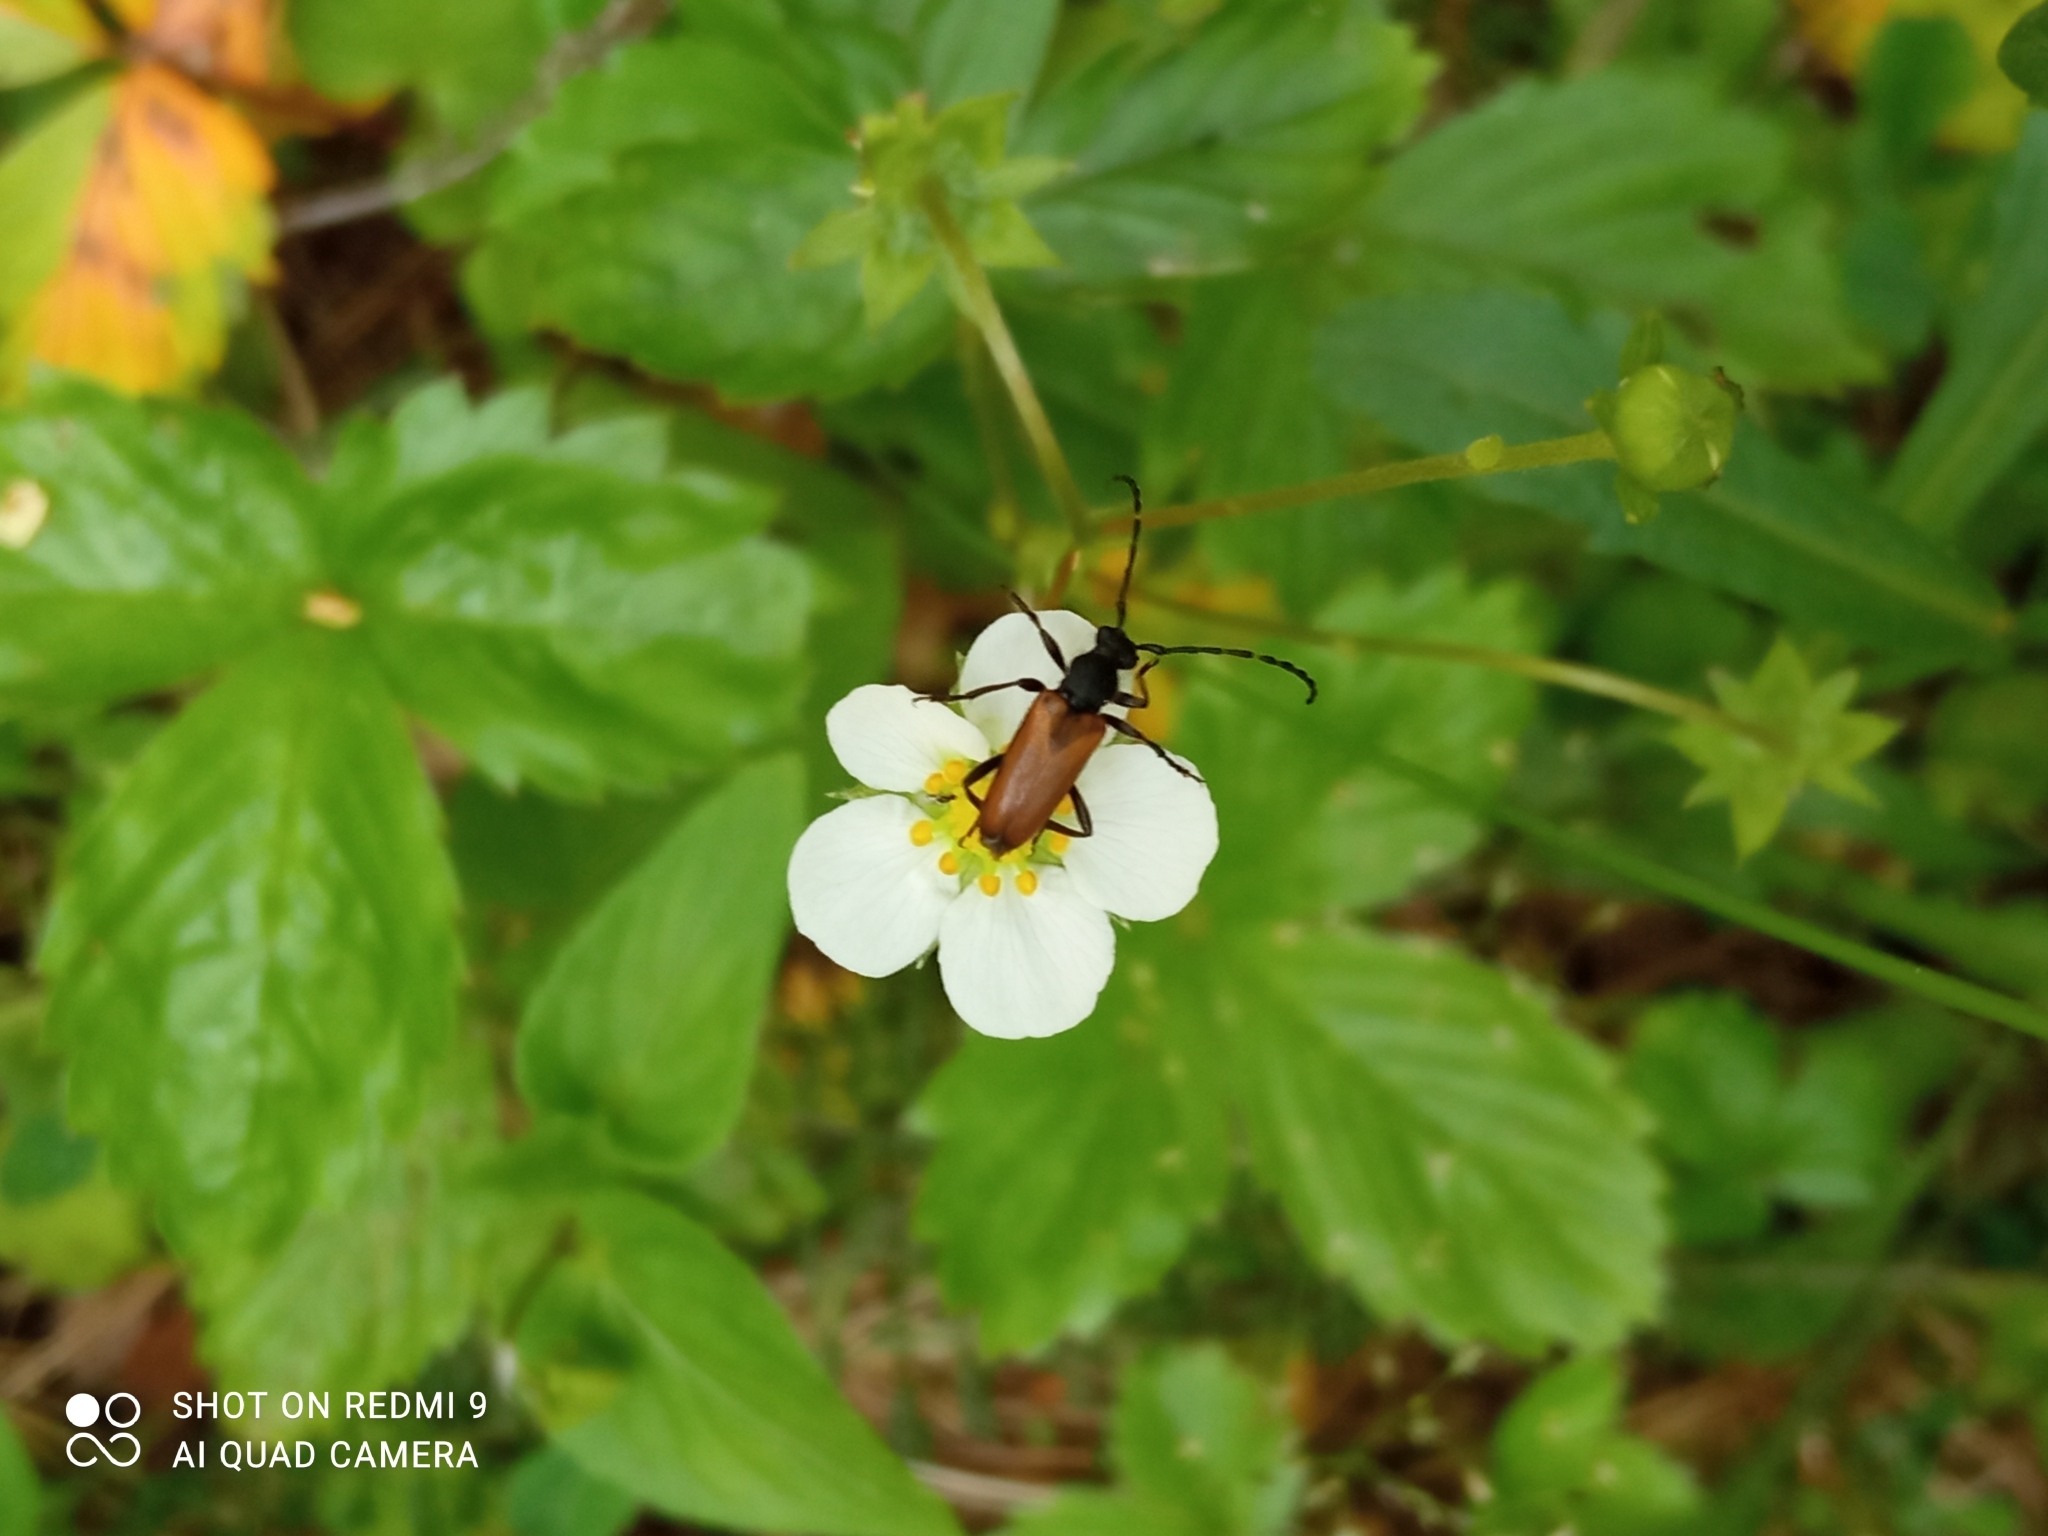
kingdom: Animalia
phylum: Arthropoda
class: Insecta
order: Coleoptera
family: Cerambycidae
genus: Paracorymbia
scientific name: Paracorymbia maculicornis
